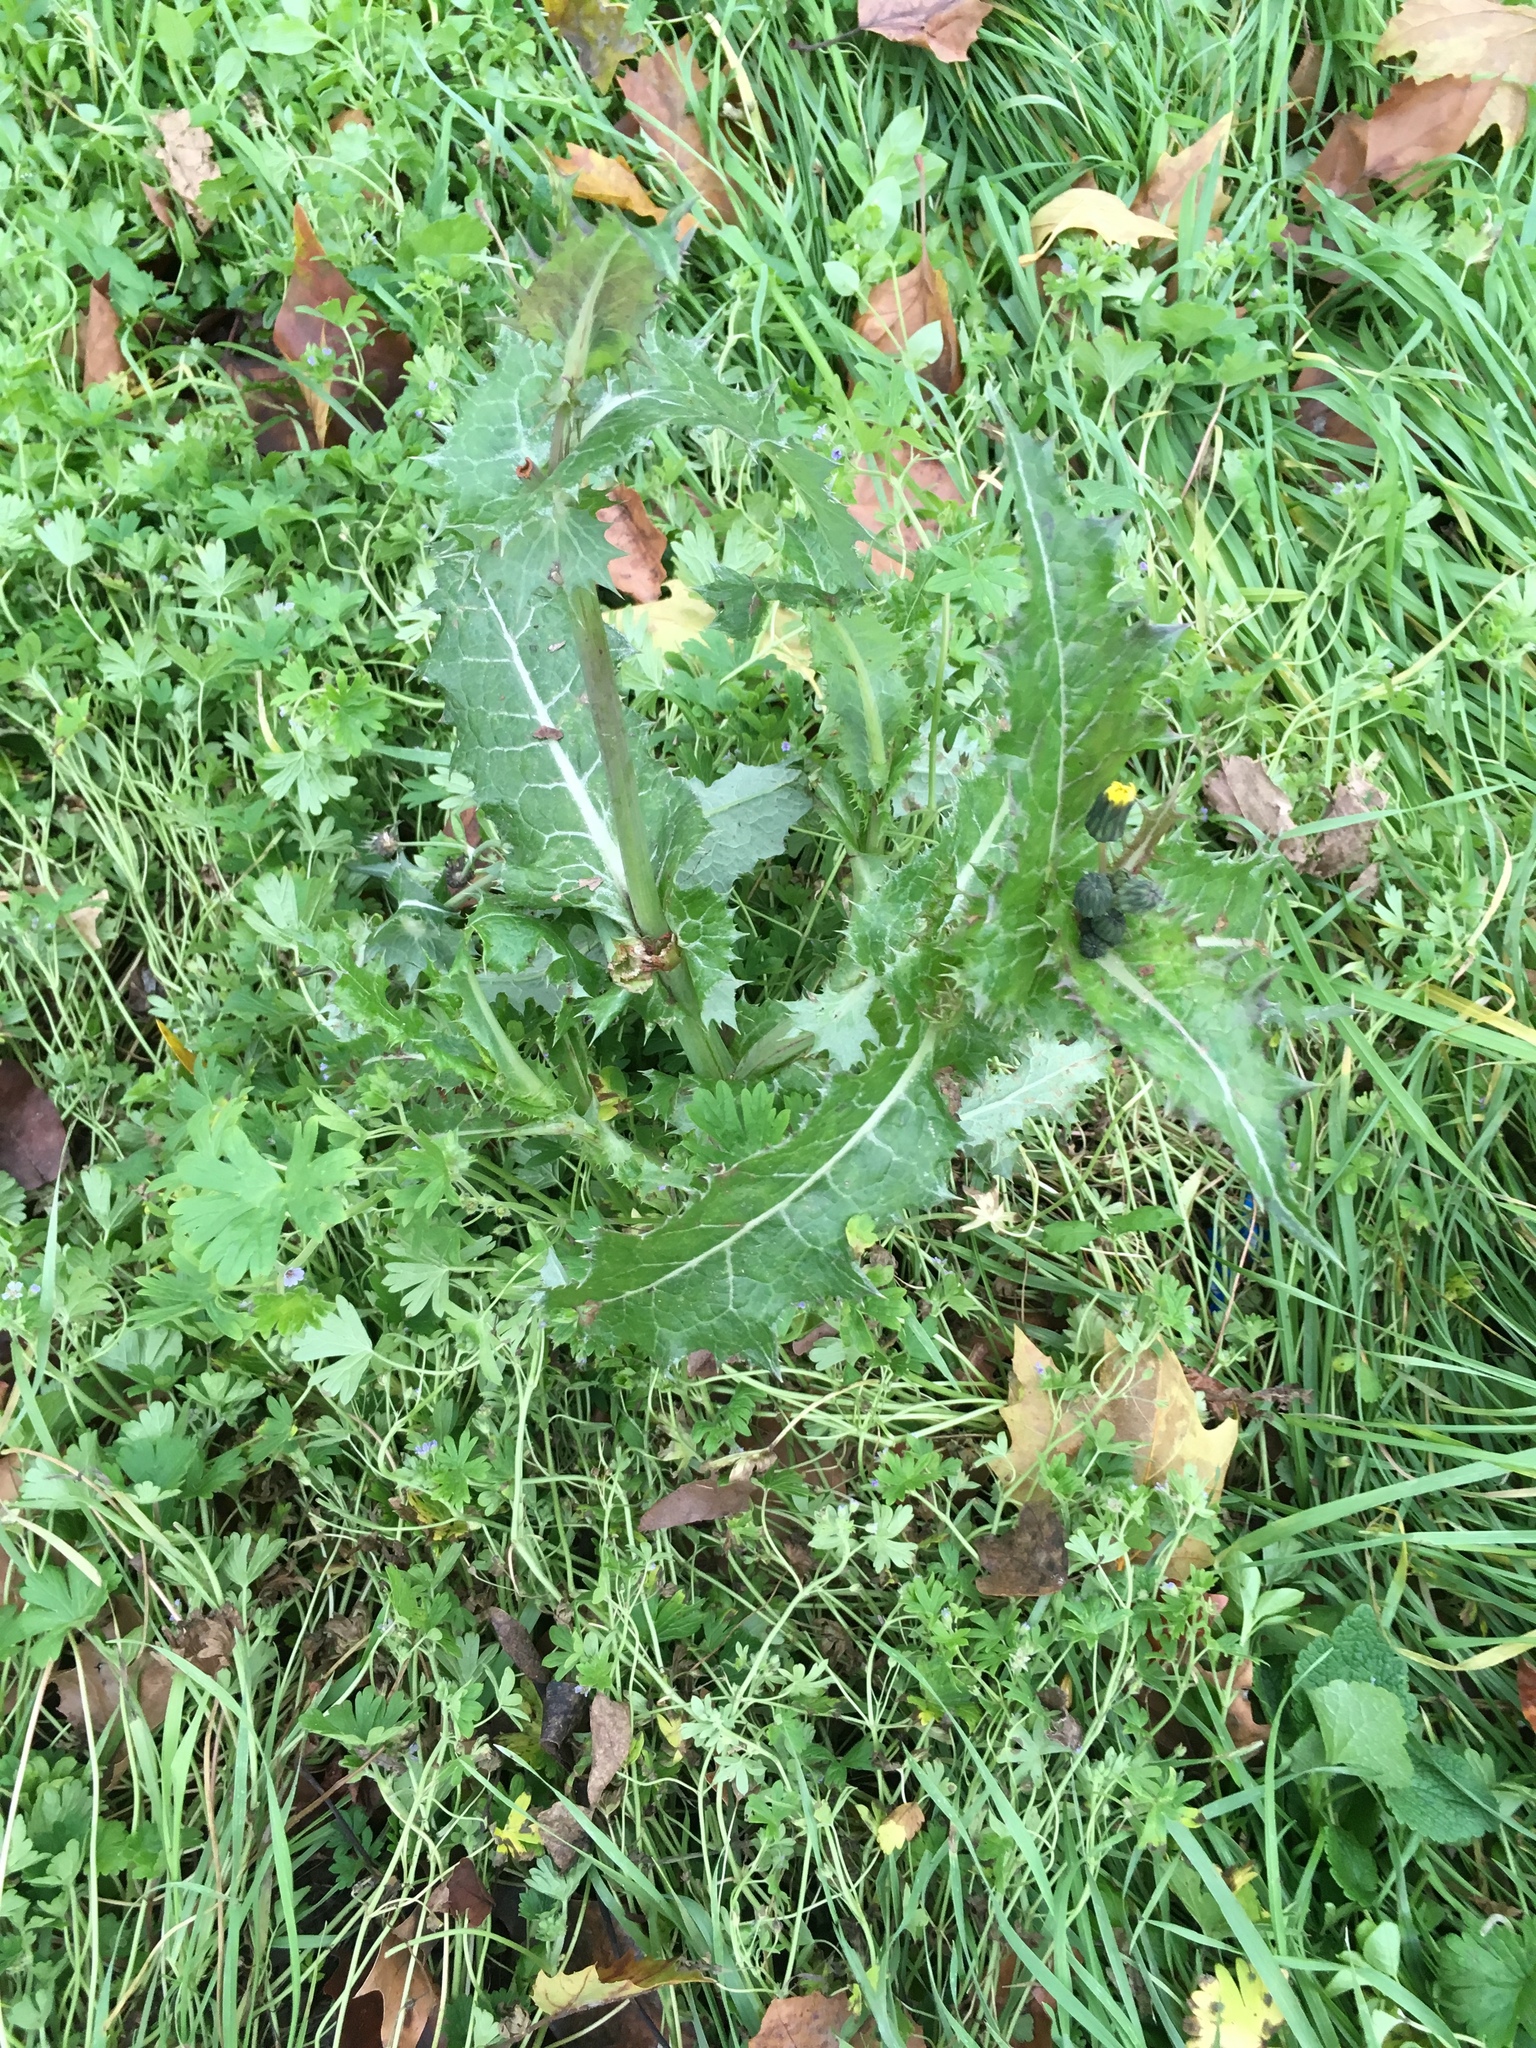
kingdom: Plantae
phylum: Tracheophyta
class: Magnoliopsida
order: Asterales
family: Asteraceae
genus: Sonchus
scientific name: Sonchus asper
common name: Prickly sow-thistle
